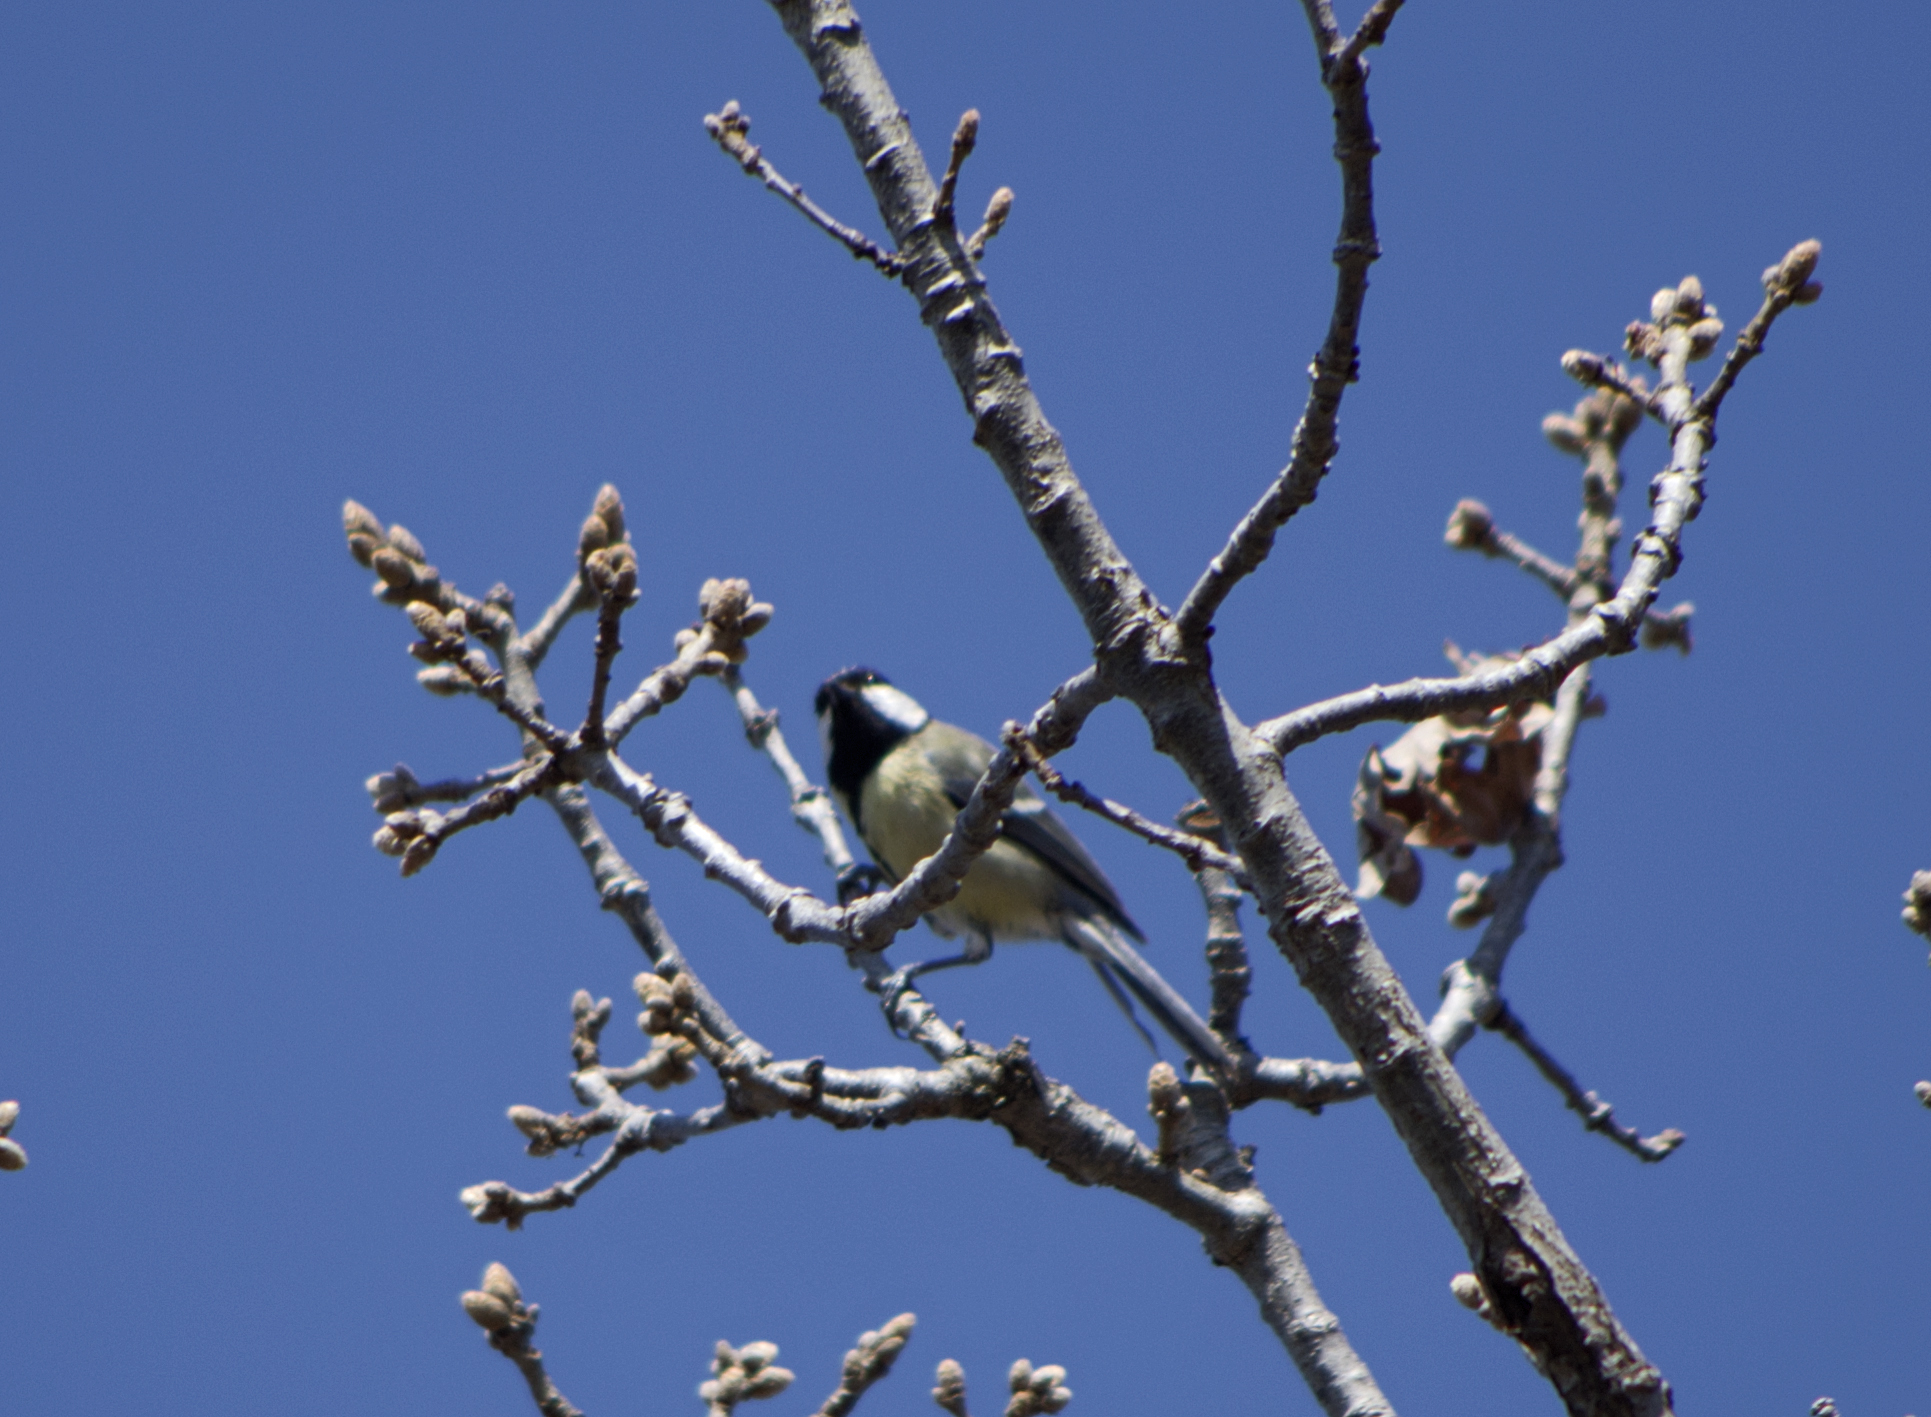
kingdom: Animalia
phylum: Chordata
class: Aves
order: Passeriformes
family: Paridae
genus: Parus
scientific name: Parus major
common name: Great tit
